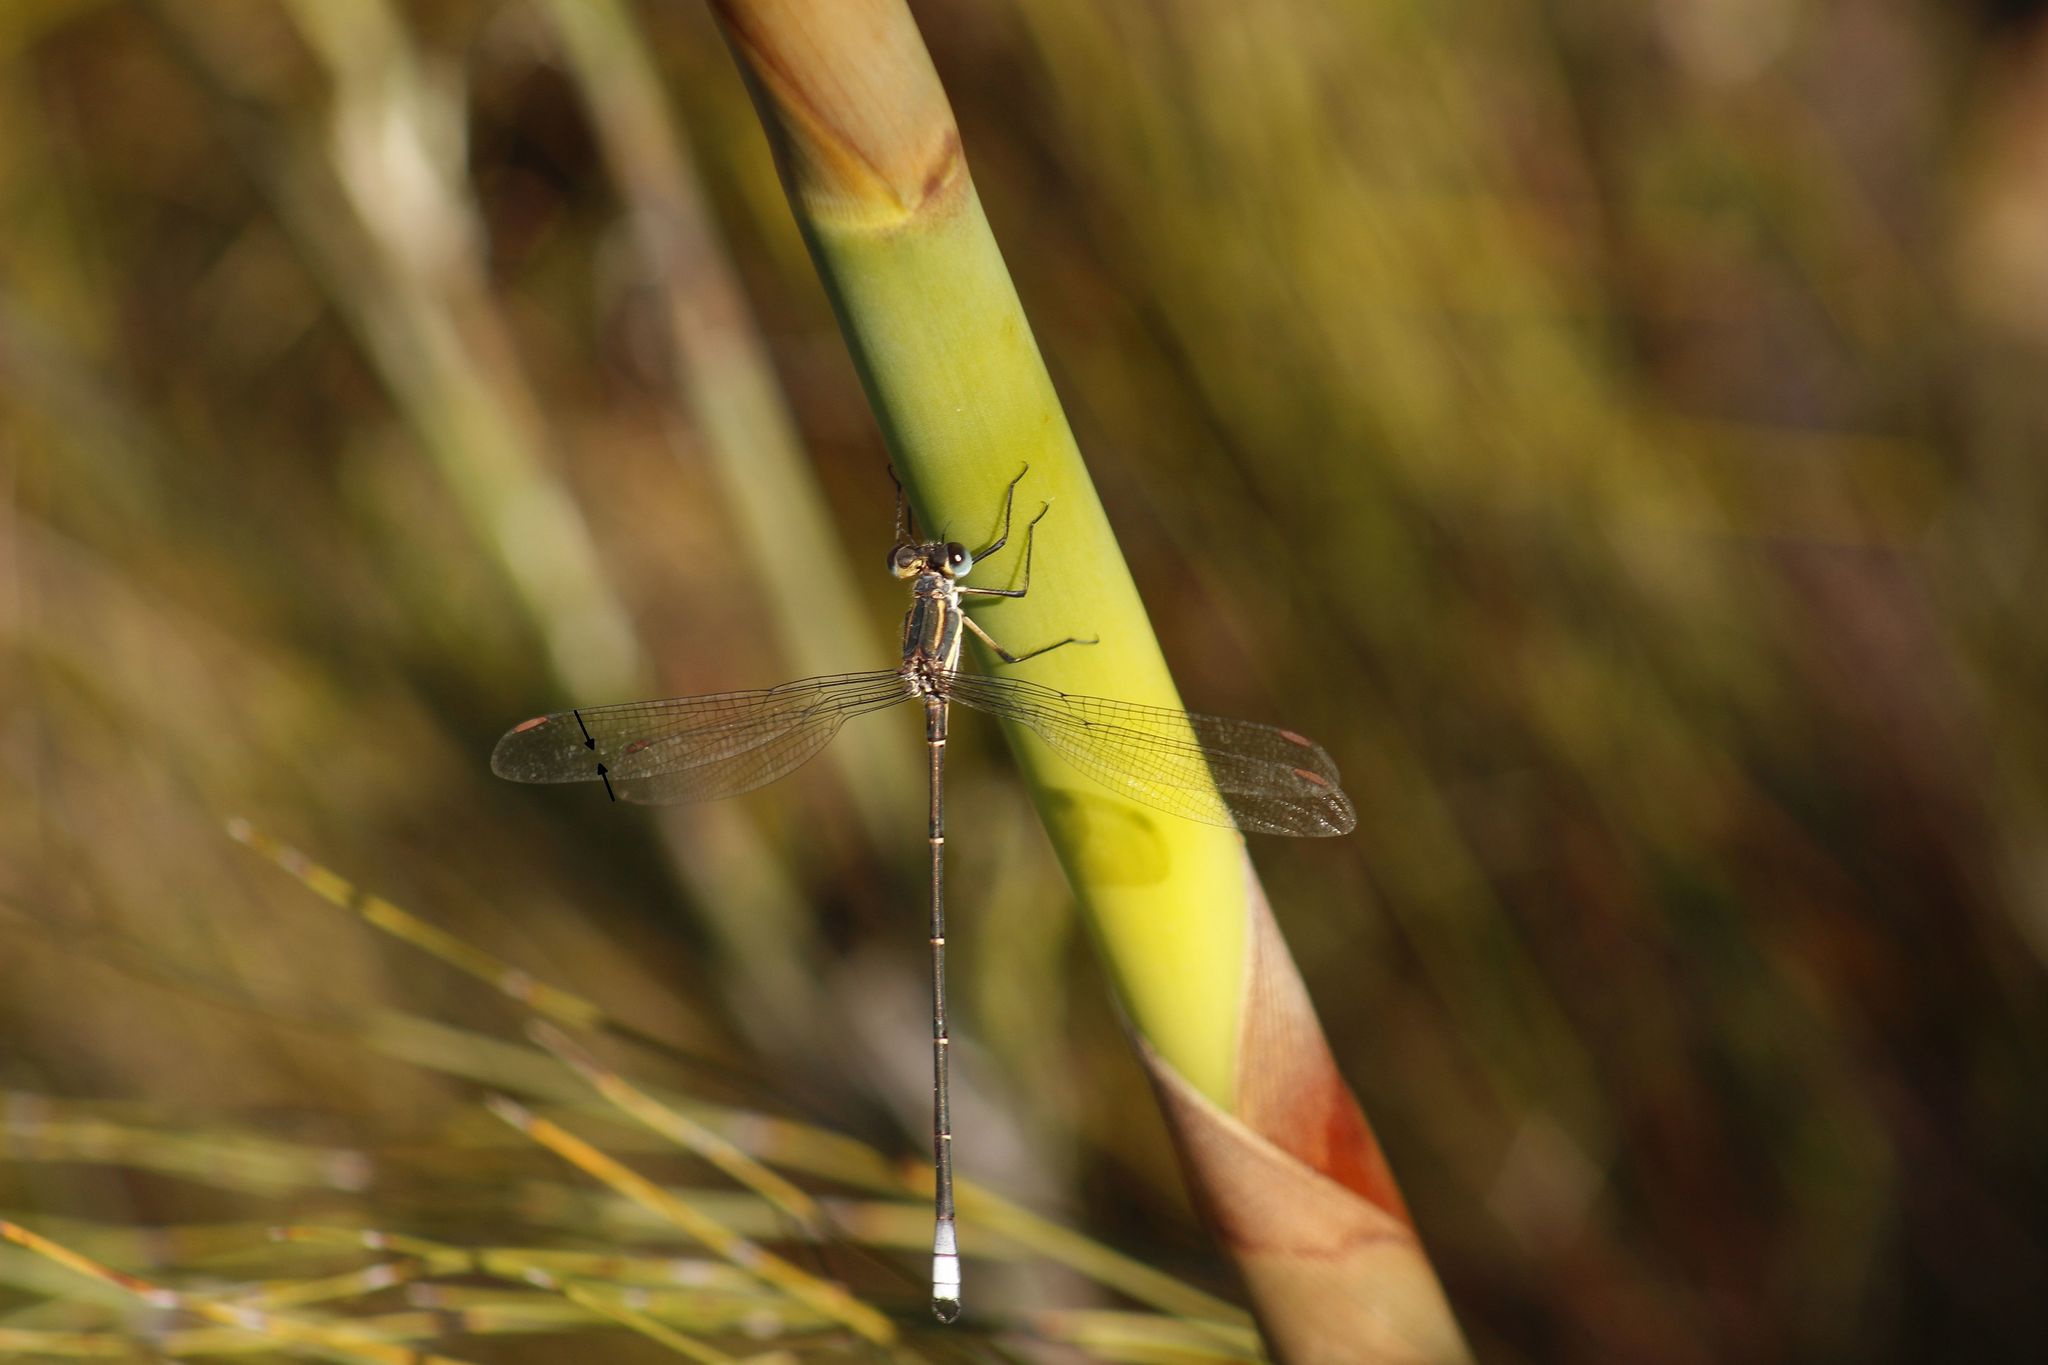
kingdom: Animalia
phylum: Arthropoda
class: Insecta
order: Odonata
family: Synlestidae
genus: Chlorolestes
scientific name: Chlorolestes conspicuus
